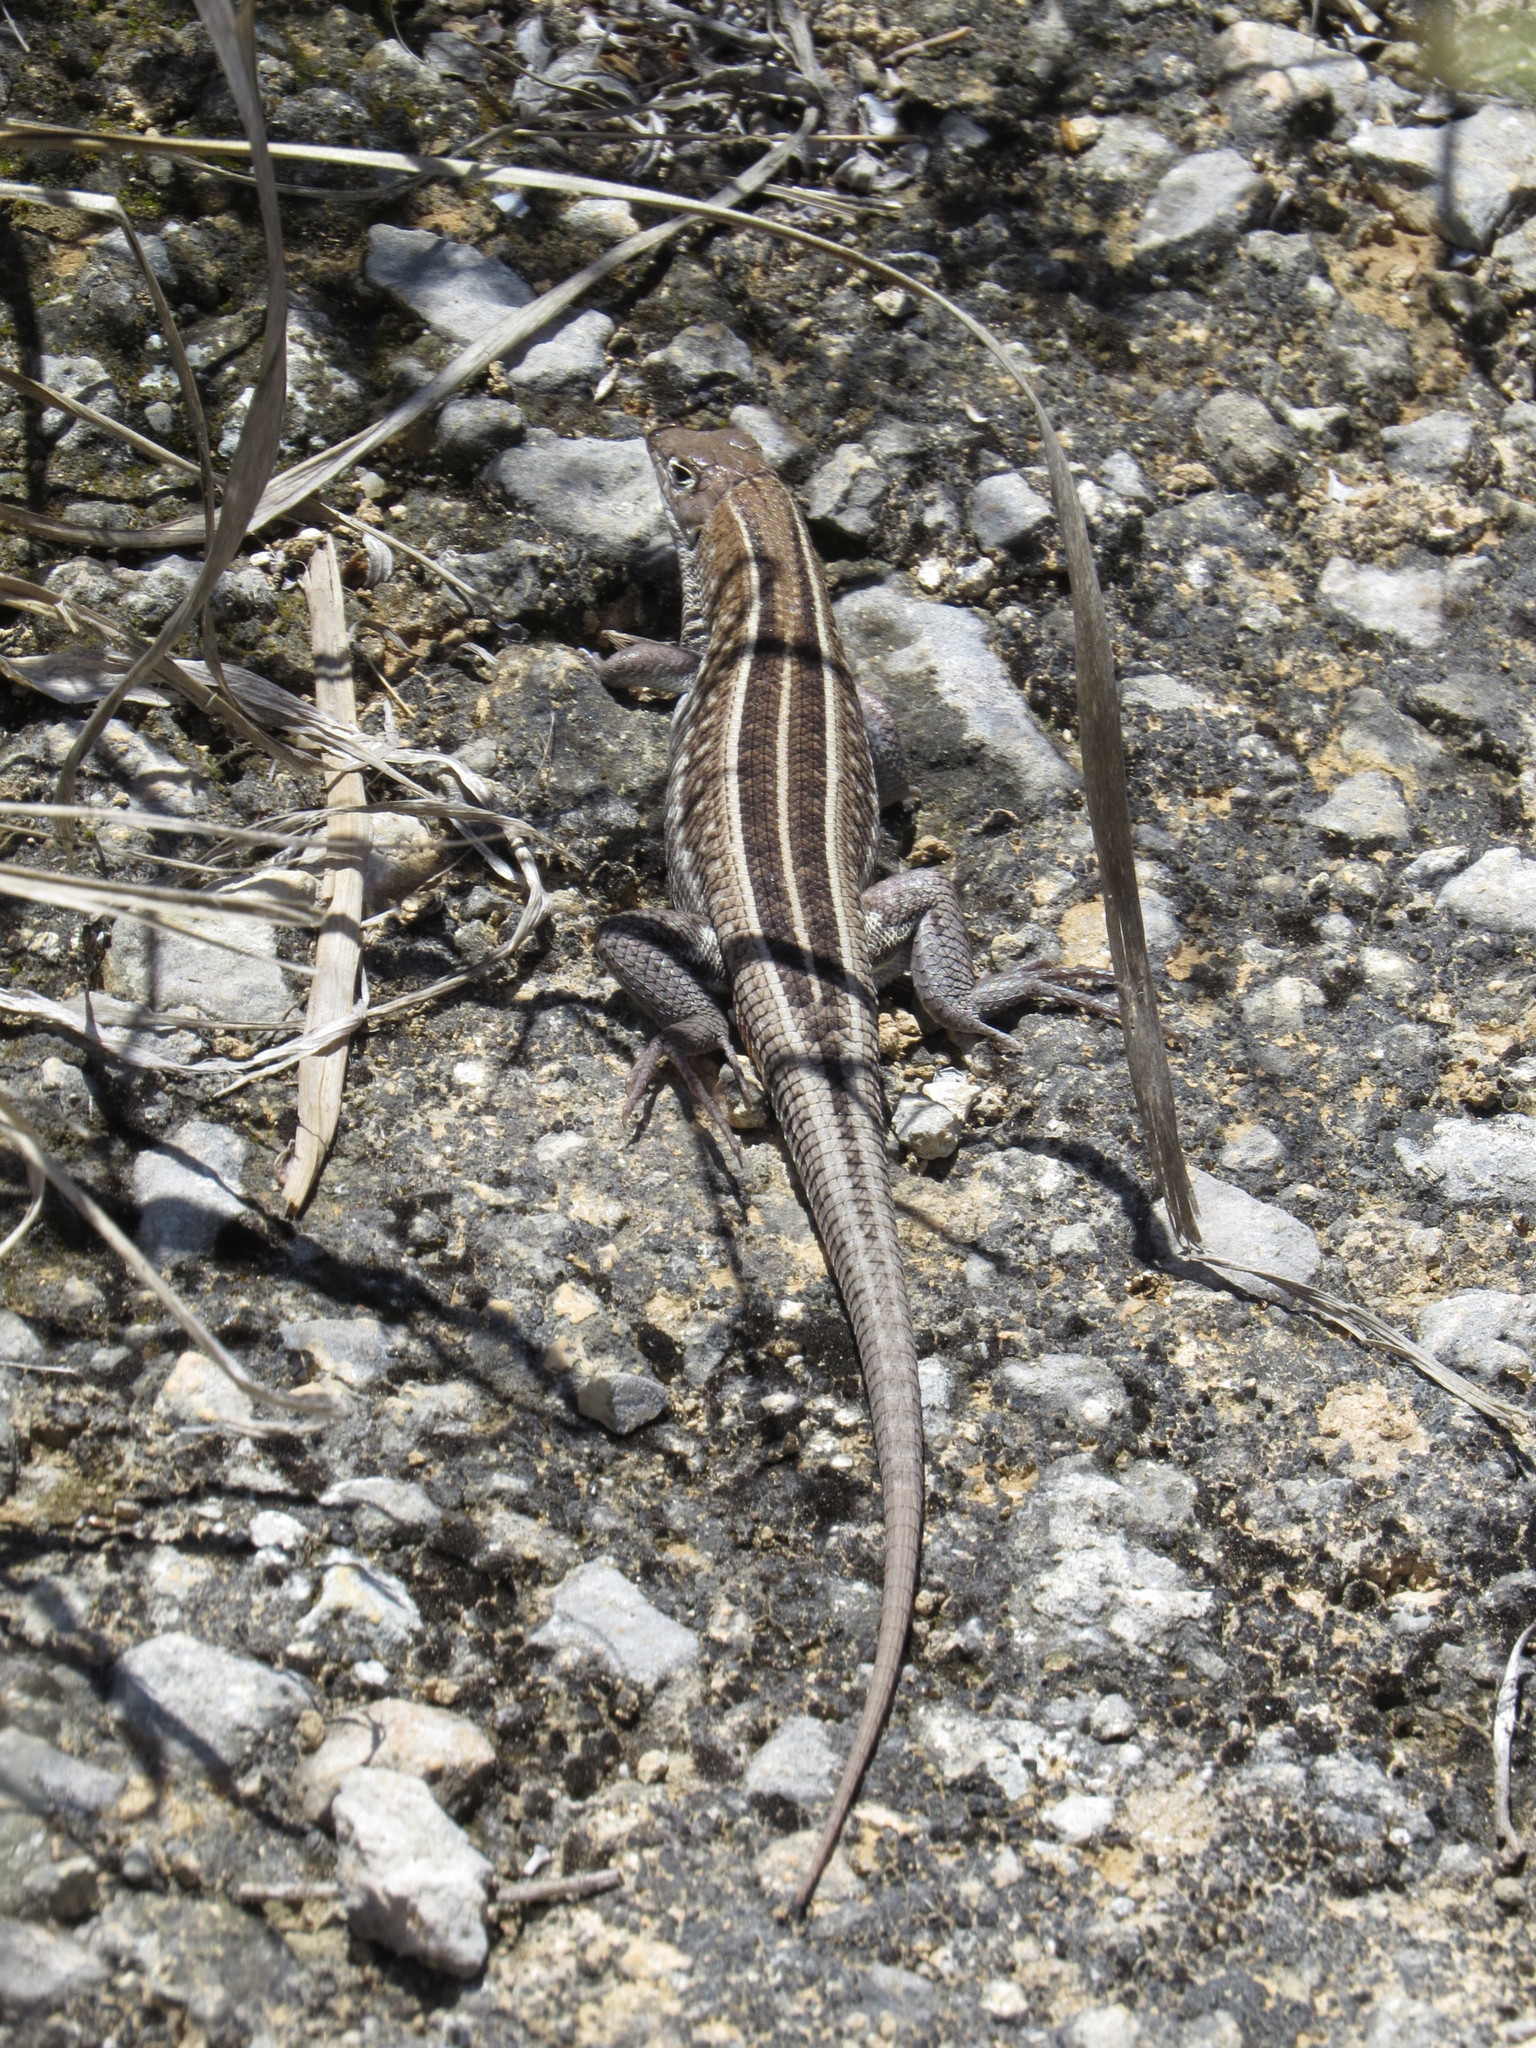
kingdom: Animalia
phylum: Chordata
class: Squamata
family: Gerrhosauridae
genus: Tracheloptychus
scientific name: Tracheloptychus madagascariensis
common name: Madagascar girdled lizard
